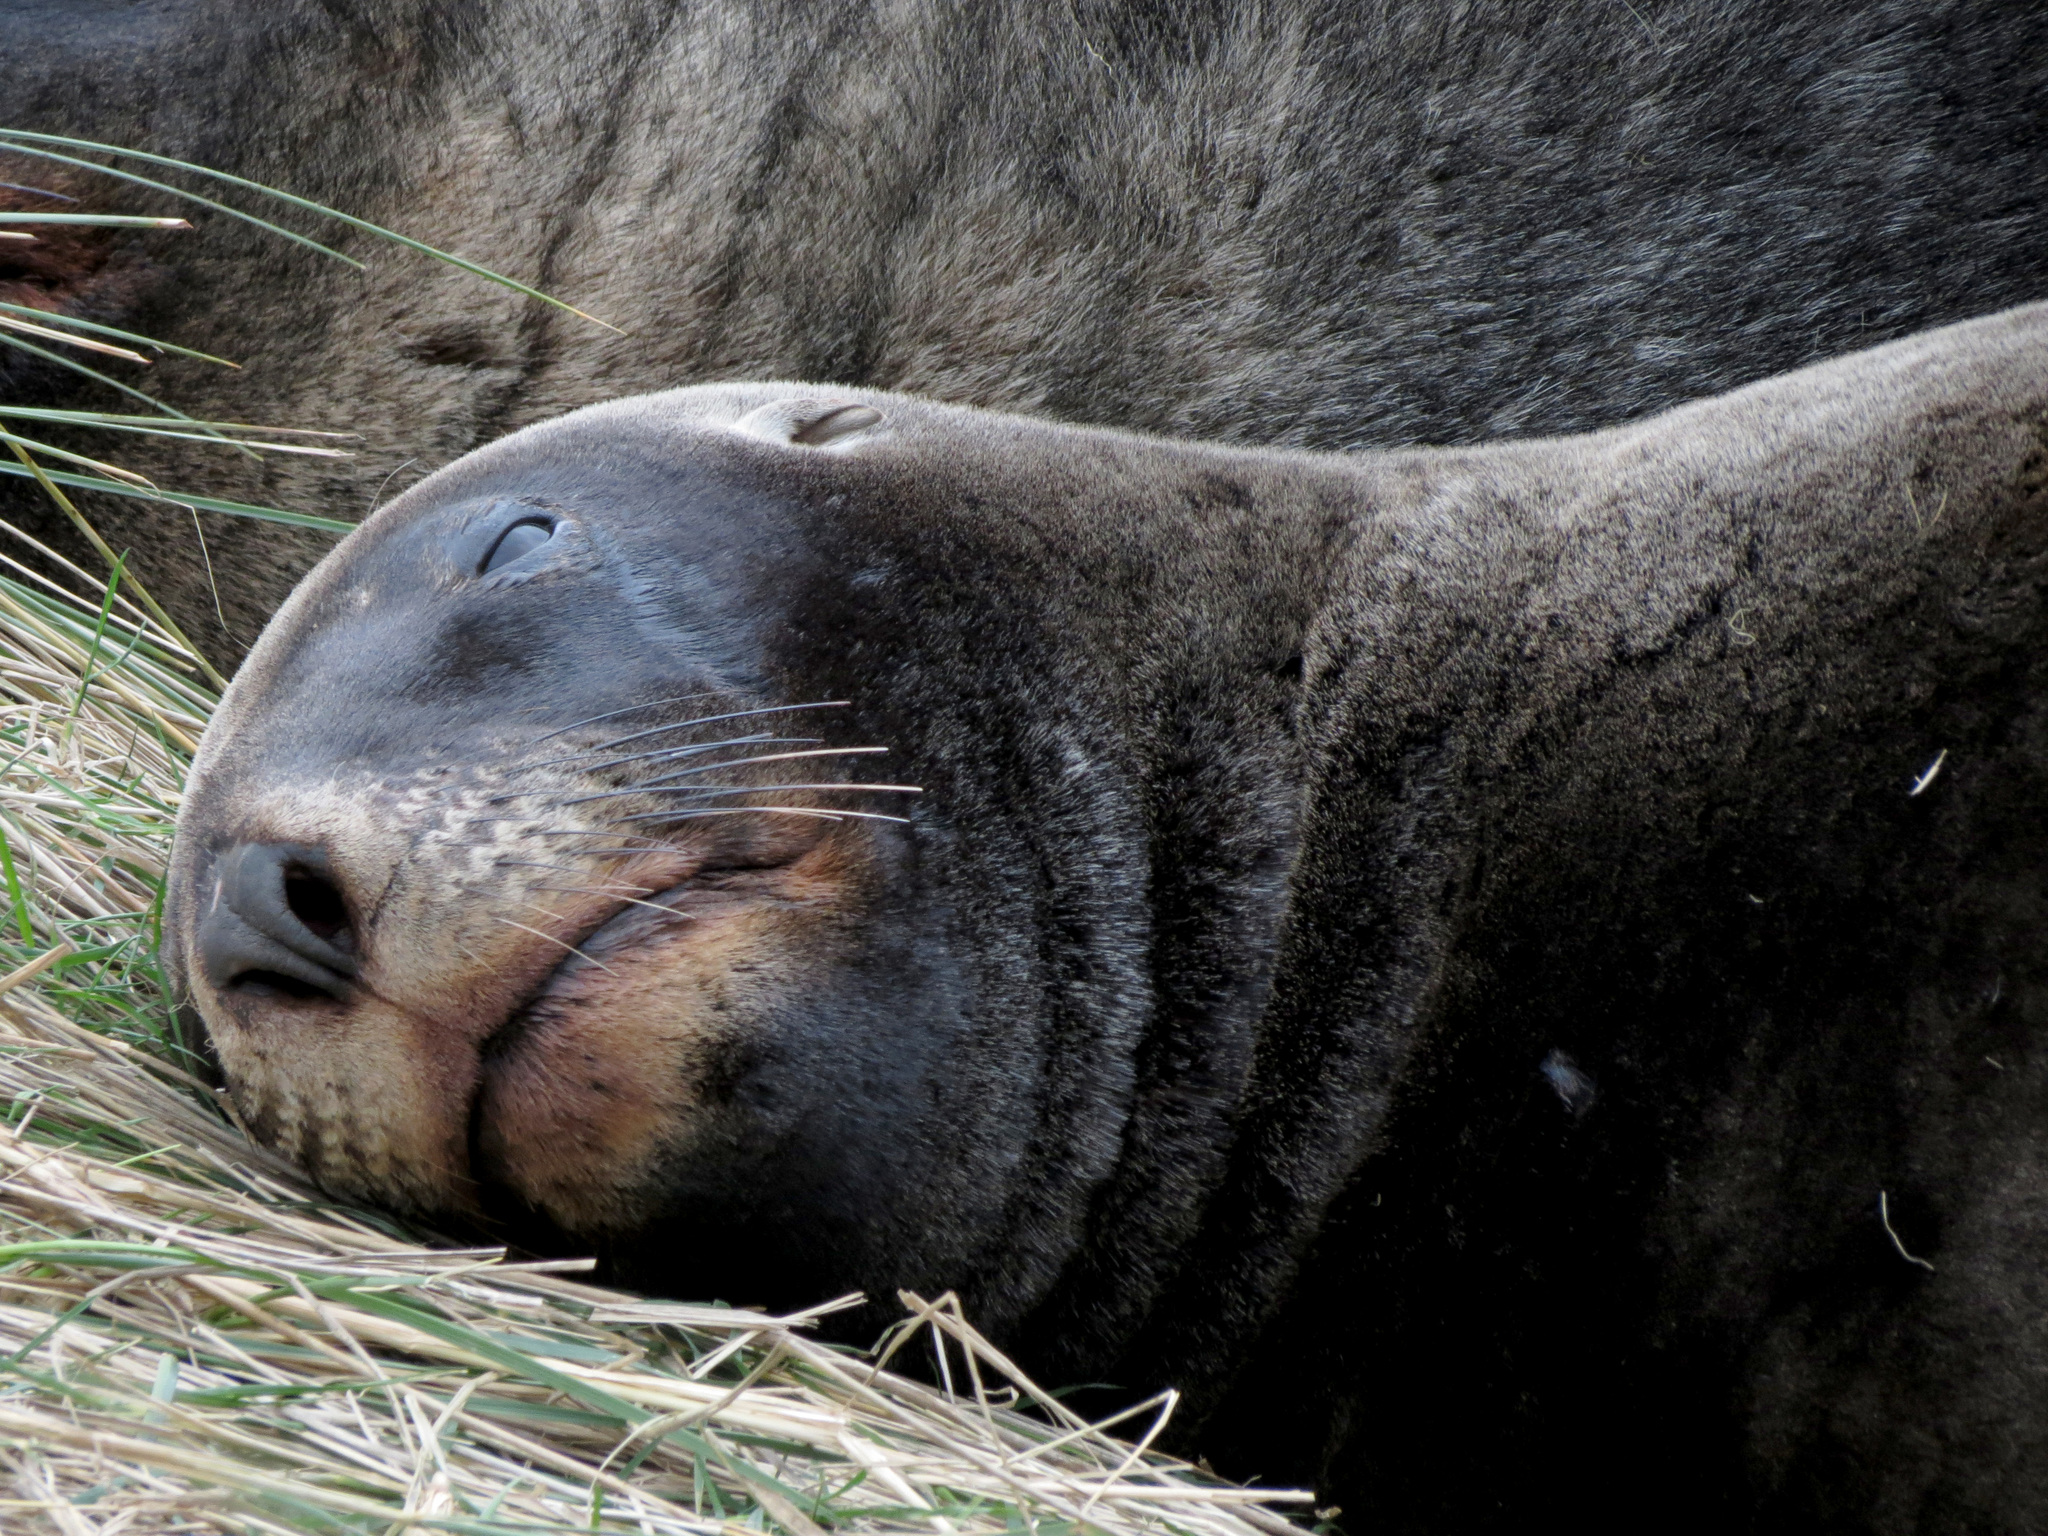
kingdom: Animalia
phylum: Chordata
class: Mammalia
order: Carnivora
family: Otariidae
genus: Phocarctos
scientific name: Phocarctos hookeri
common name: New zealand sea lion
